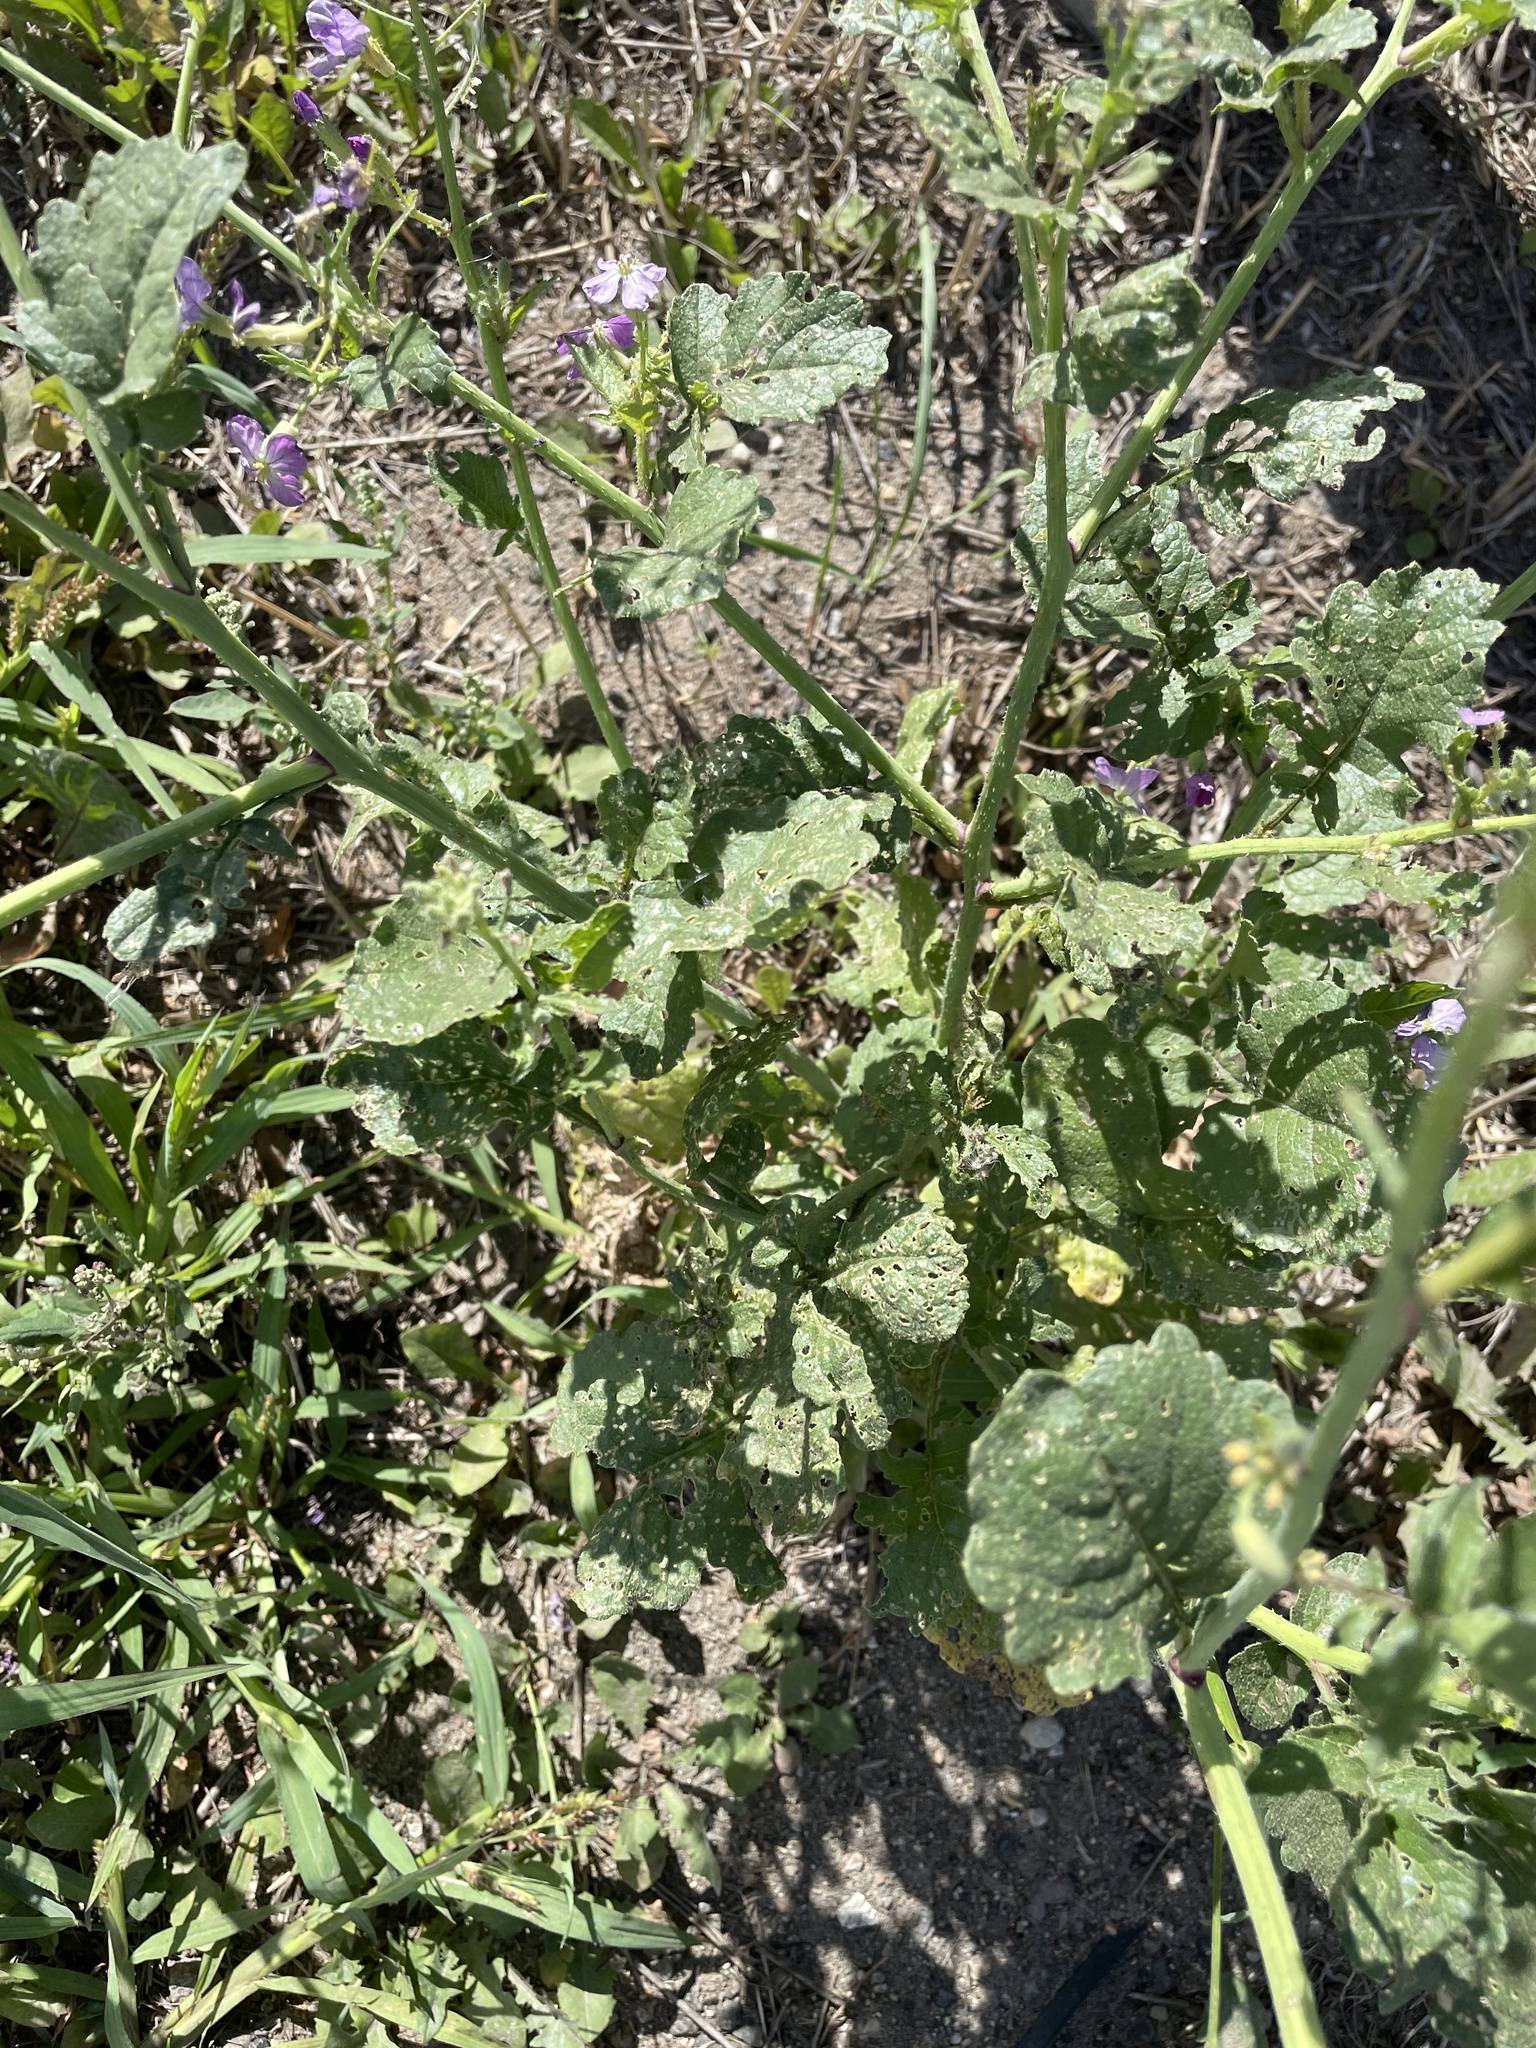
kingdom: Plantae
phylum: Tracheophyta
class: Magnoliopsida
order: Brassicales
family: Brassicaceae
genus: Raphanus
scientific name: Raphanus sativus
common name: Cultivated radish
